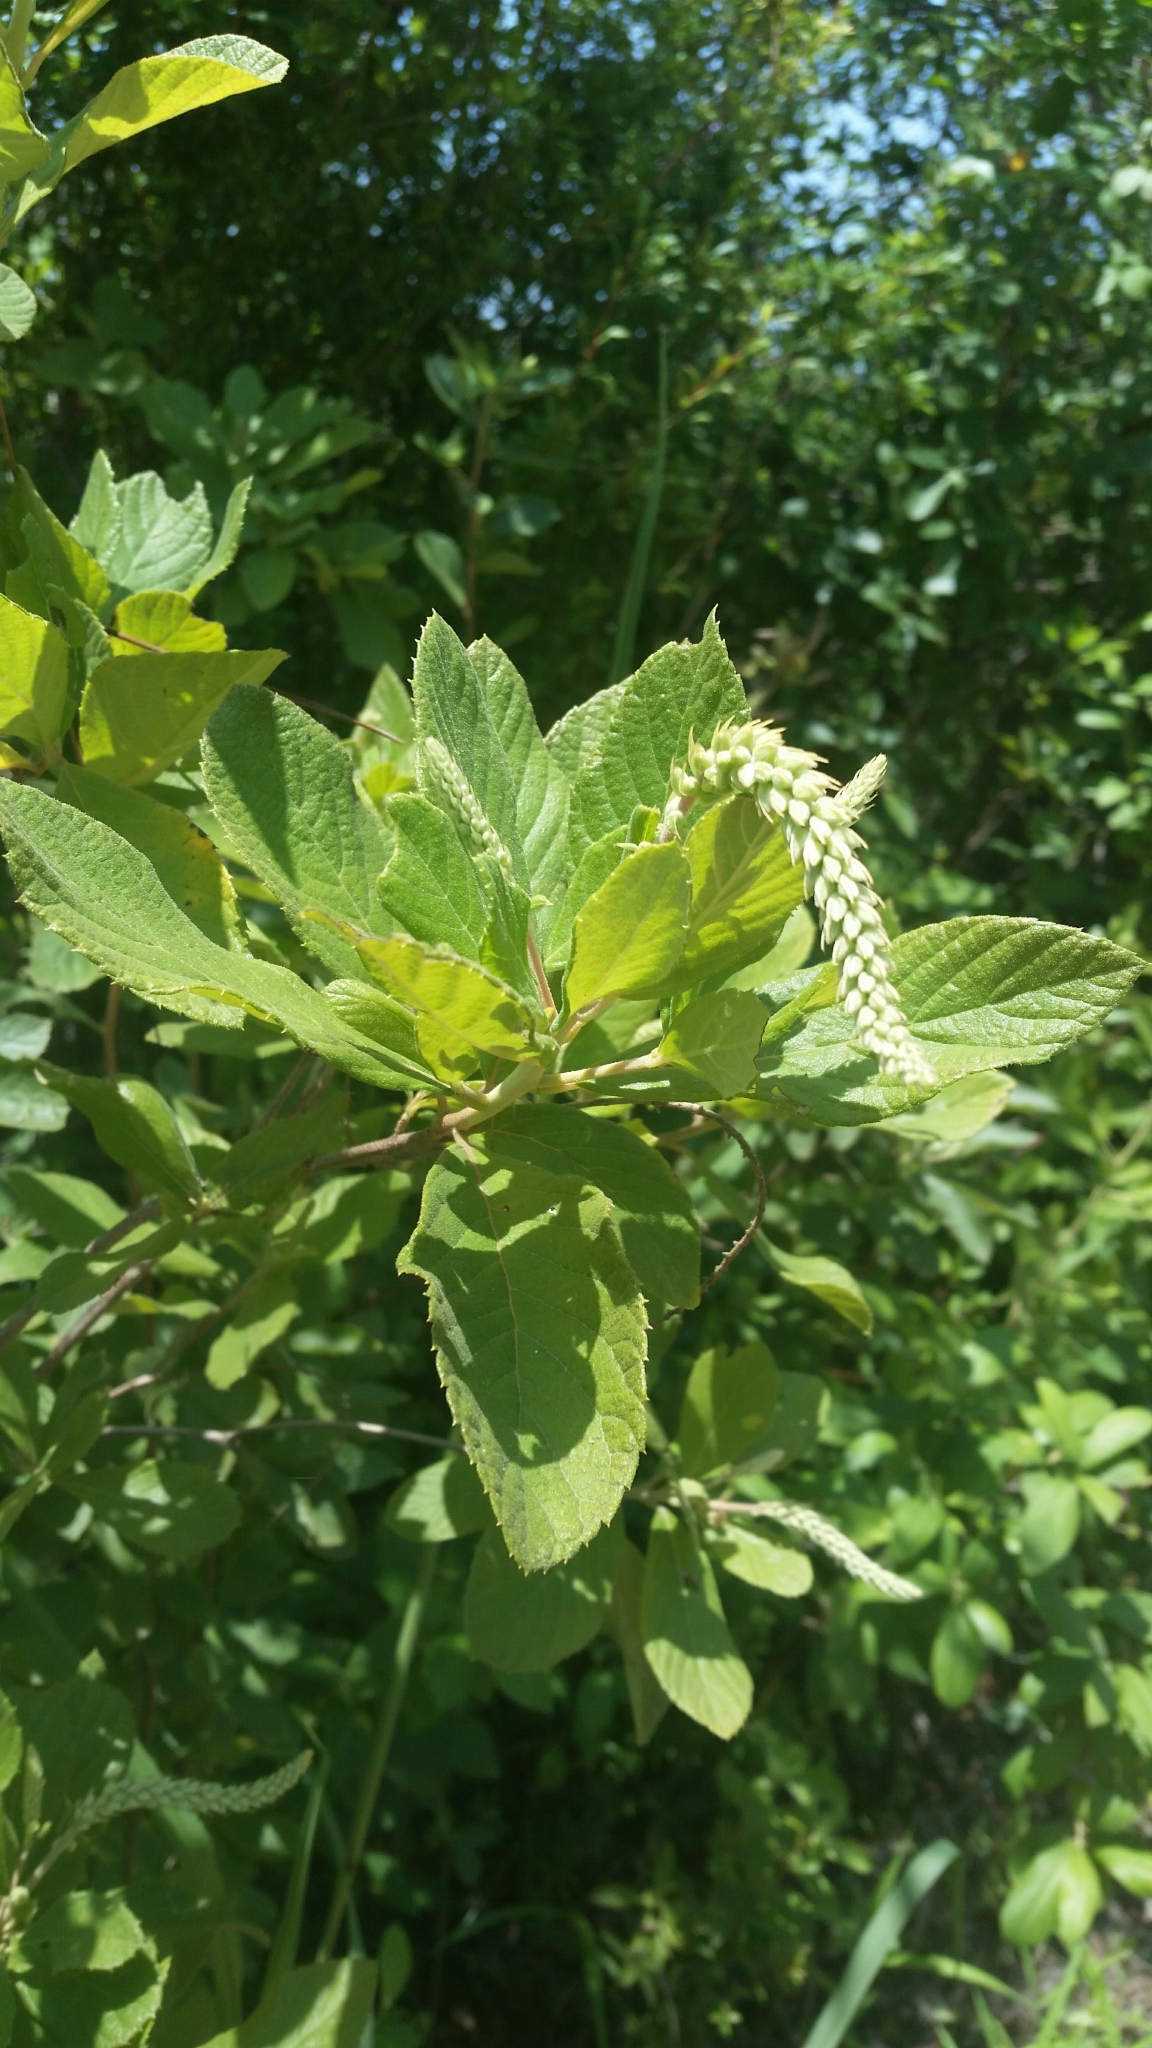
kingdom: Plantae
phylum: Tracheophyta
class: Magnoliopsida
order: Ericales
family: Clethraceae
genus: Clethra
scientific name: Clethra tomentosa
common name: Downy sweet pepperbush
